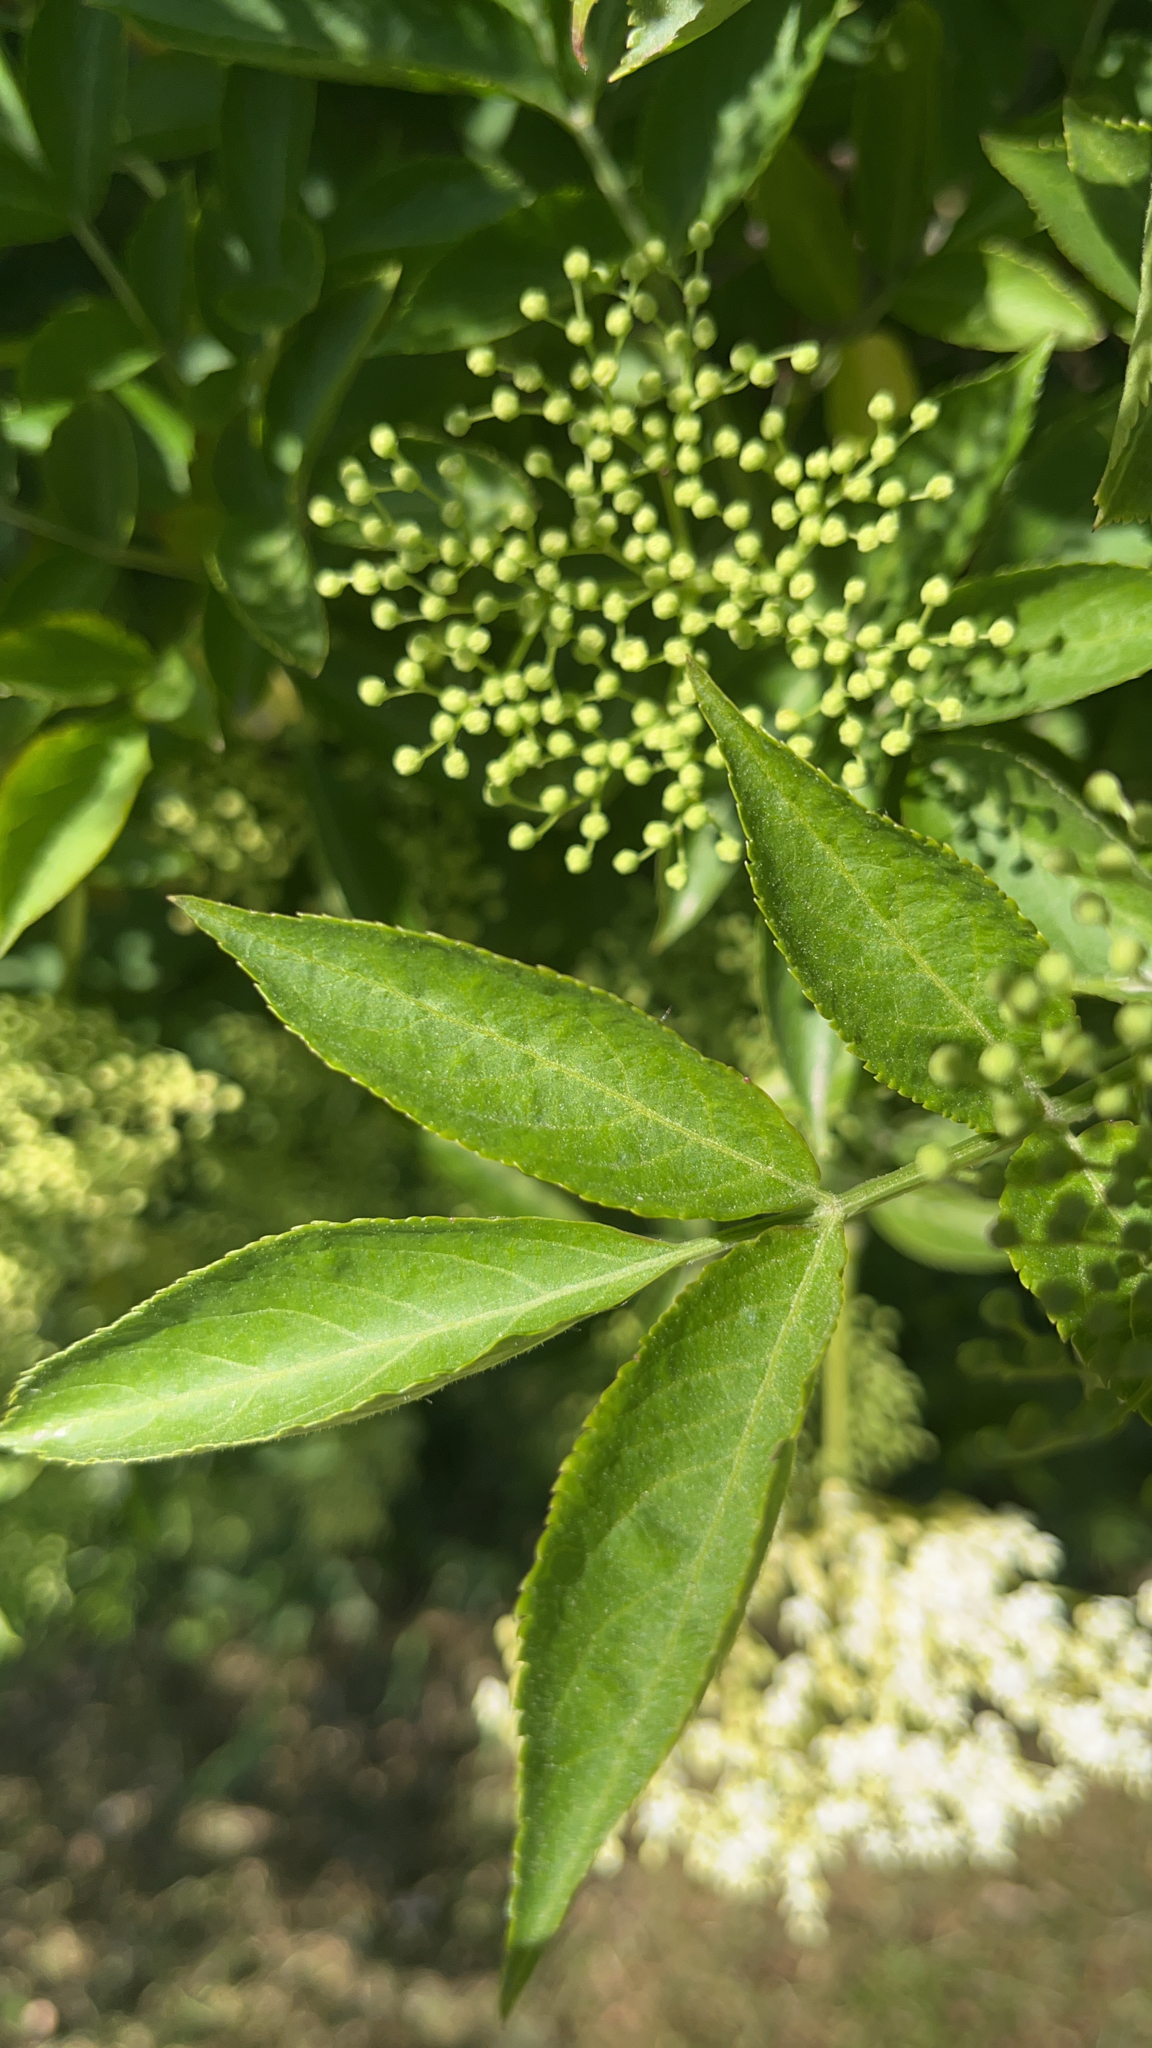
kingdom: Plantae
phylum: Tracheophyta
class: Magnoliopsida
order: Dipsacales
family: Viburnaceae
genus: Sambucus
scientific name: Sambucus nigra
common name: Elder
